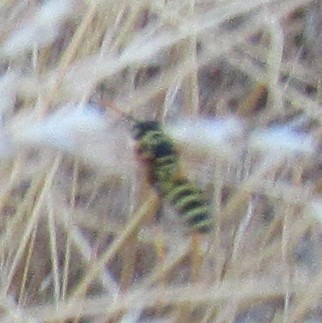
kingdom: Animalia
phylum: Arthropoda
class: Insecta
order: Hymenoptera
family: Eumenidae
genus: Polistes
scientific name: Polistes dominula
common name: Paper wasp
